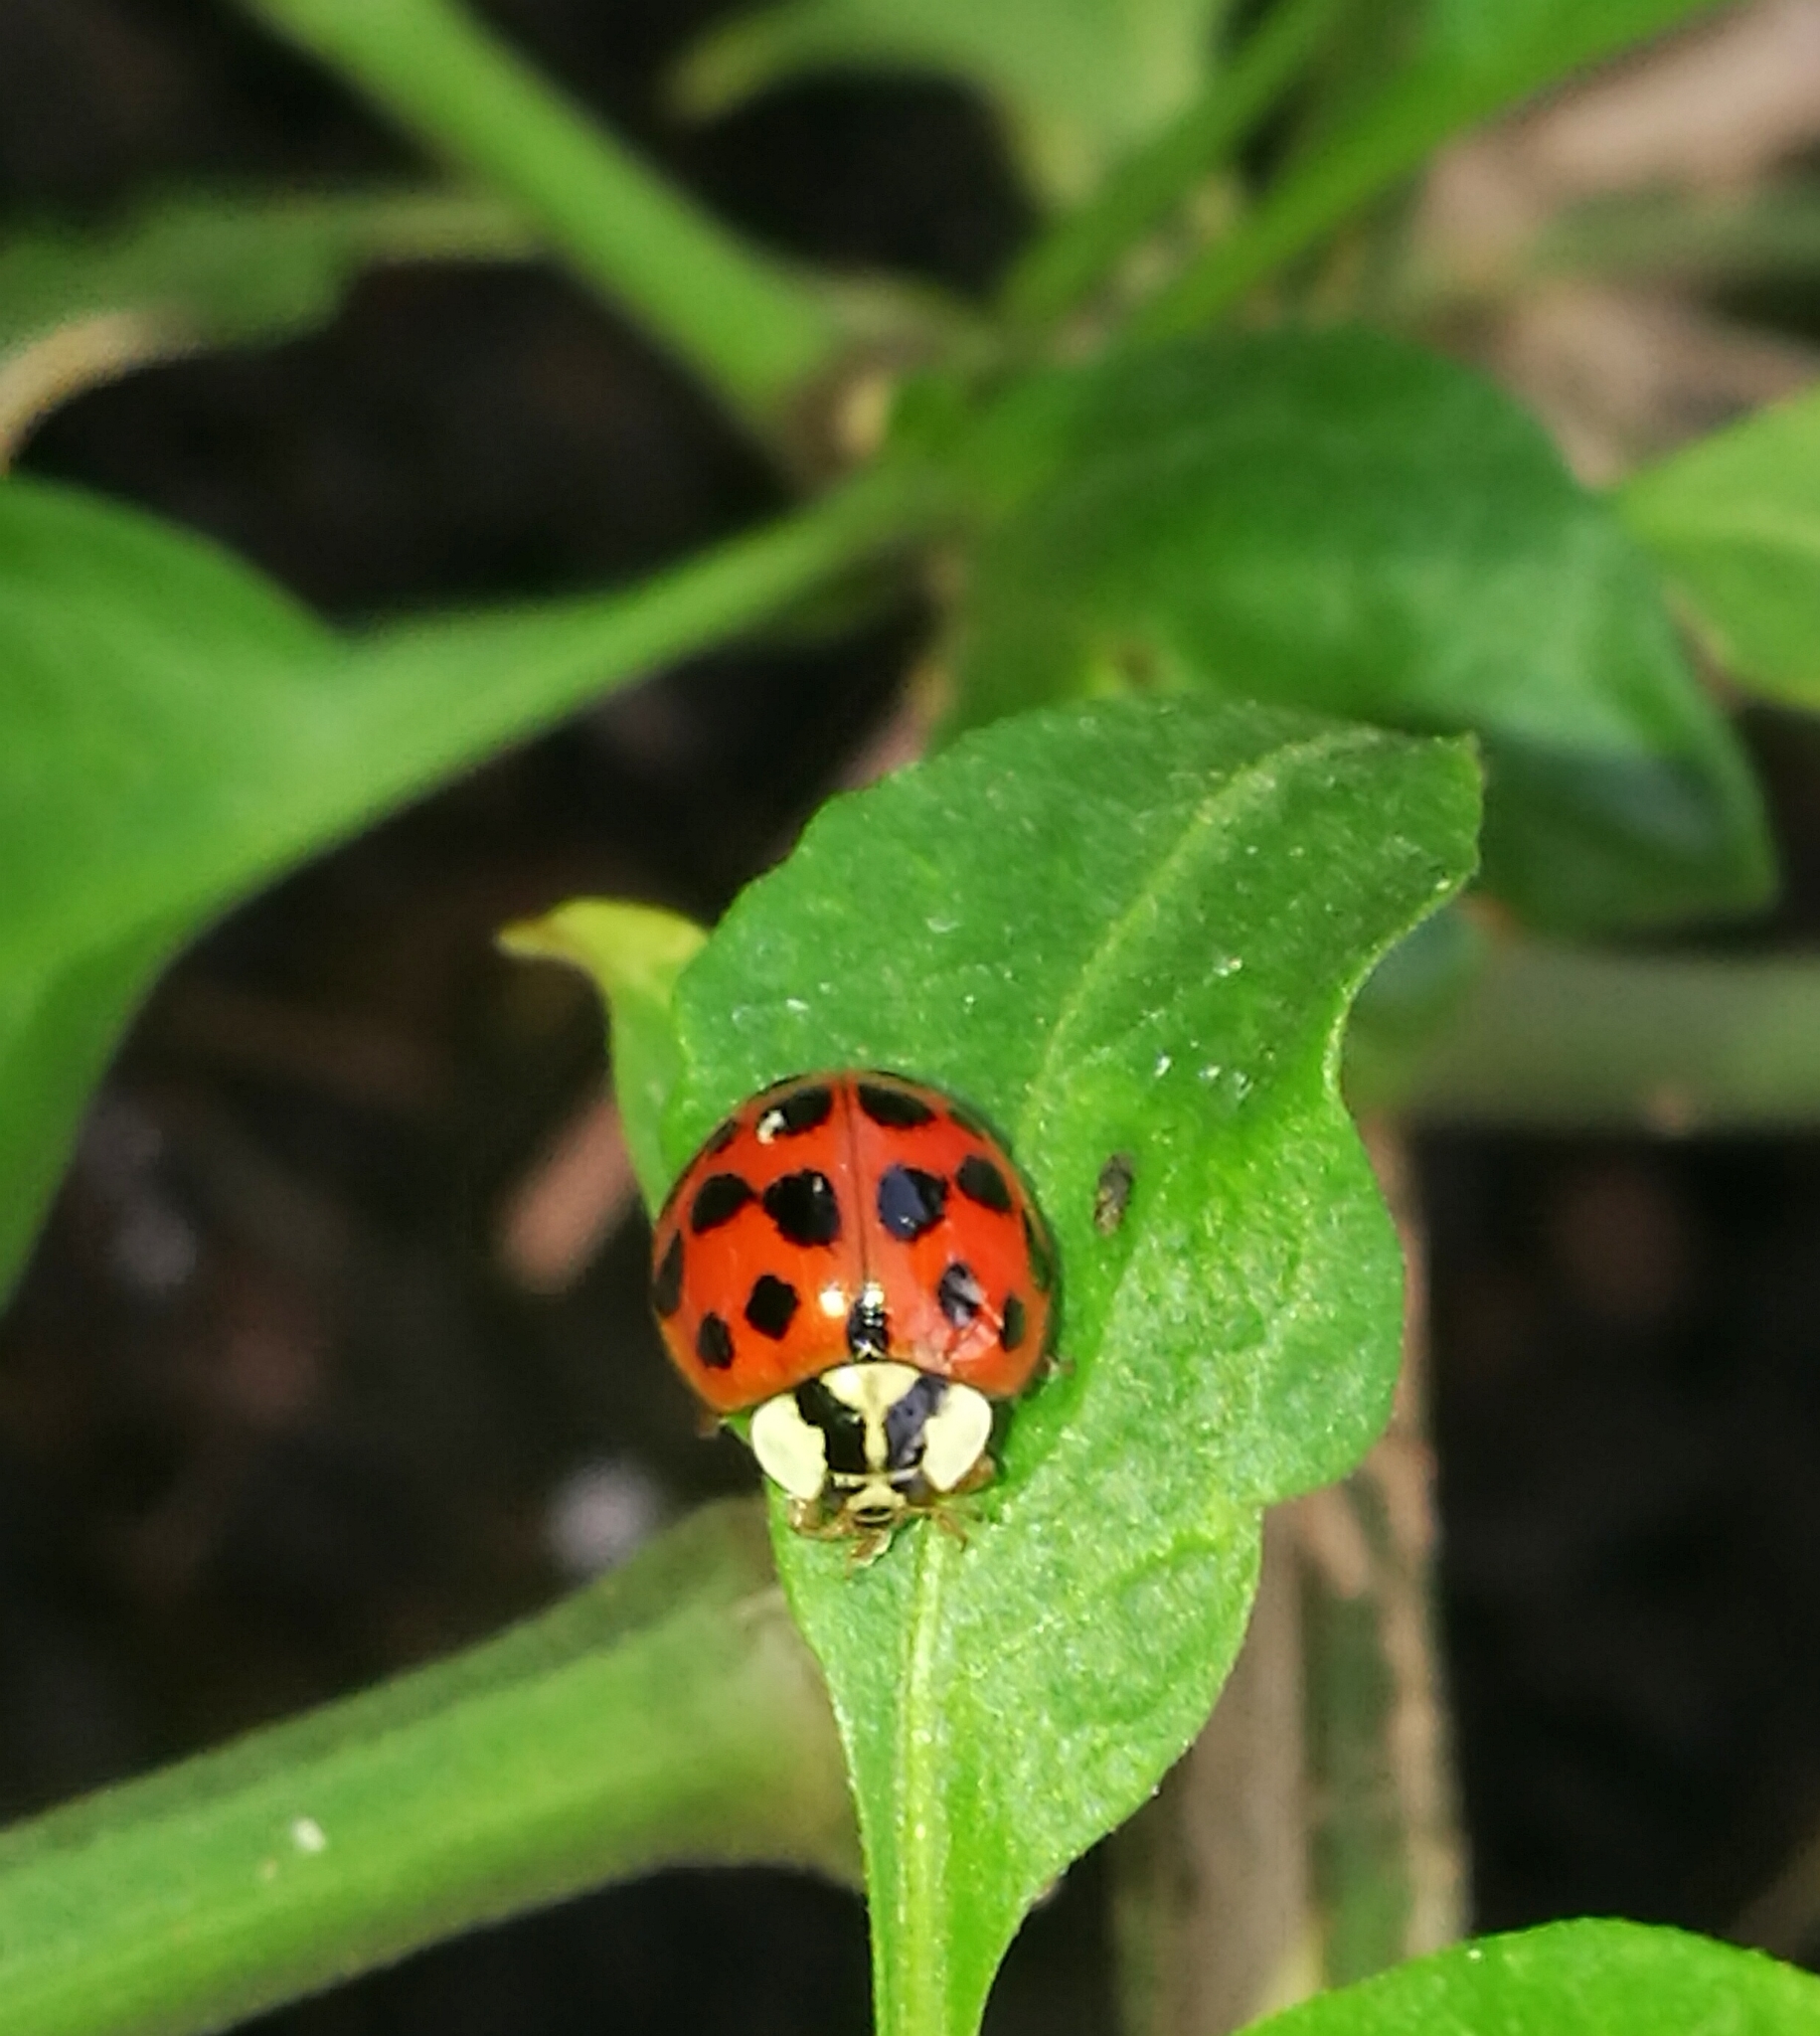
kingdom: Animalia
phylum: Arthropoda
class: Insecta
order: Coleoptera
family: Coccinellidae
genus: Harmonia
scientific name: Harmonia axyridis
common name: Harlequin ladybird
